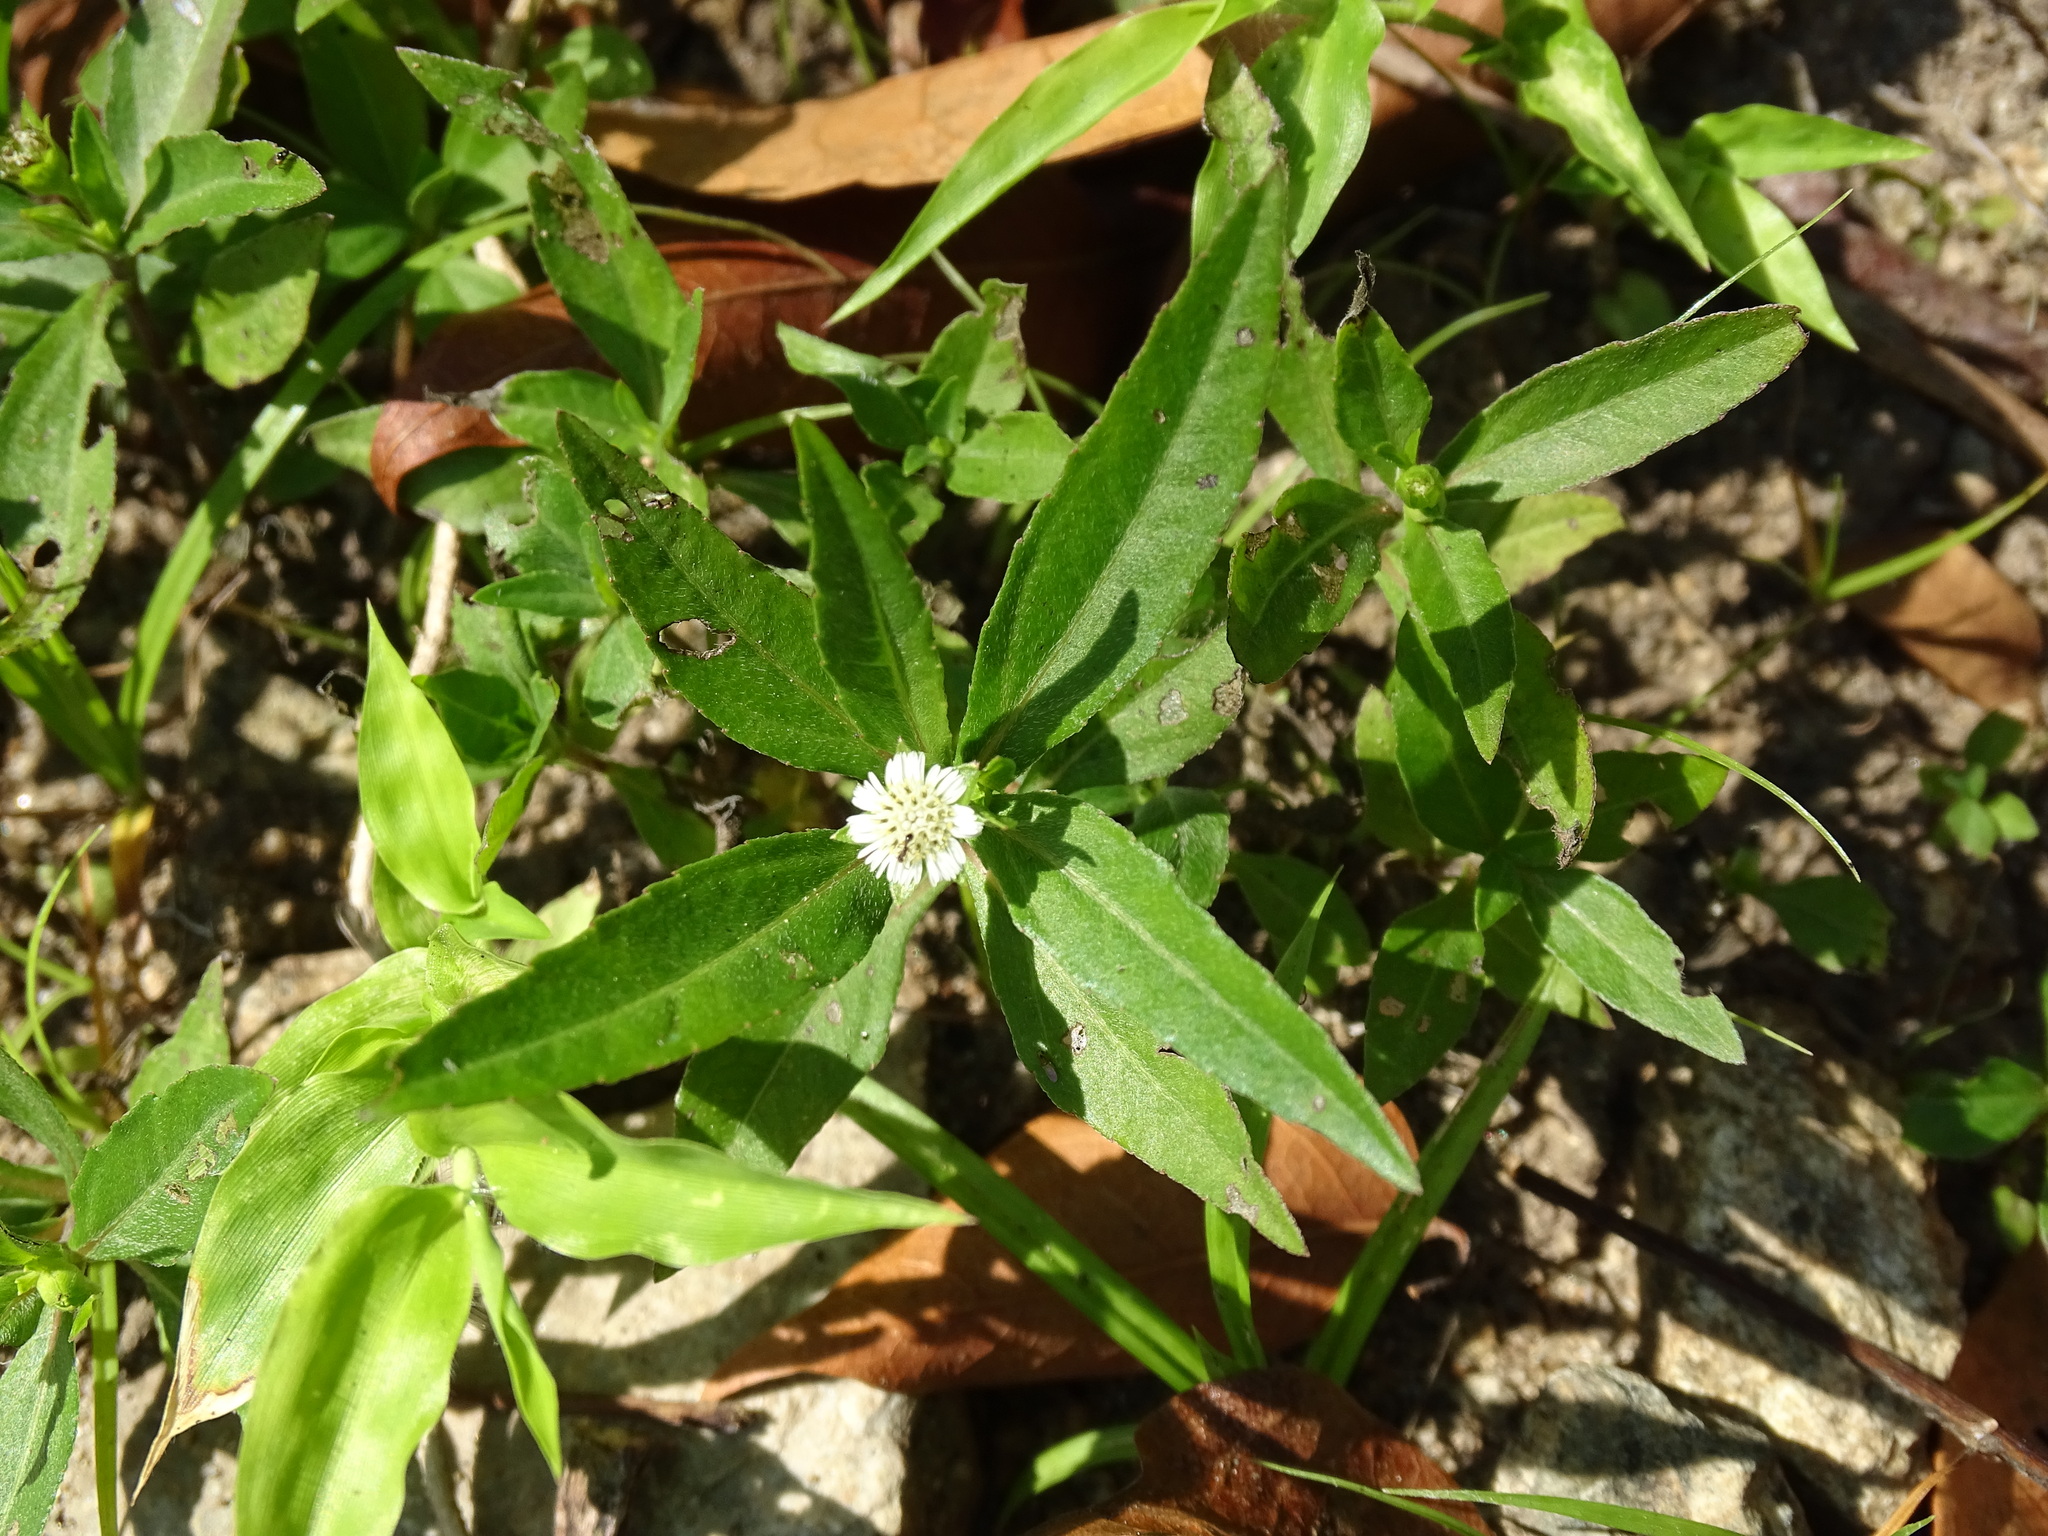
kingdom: Plantae
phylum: Tracheophyta
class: Magnoliopsida
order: Asterales
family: Asteraceae
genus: Eclipta
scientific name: Eclipta prostrata
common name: False daisy
